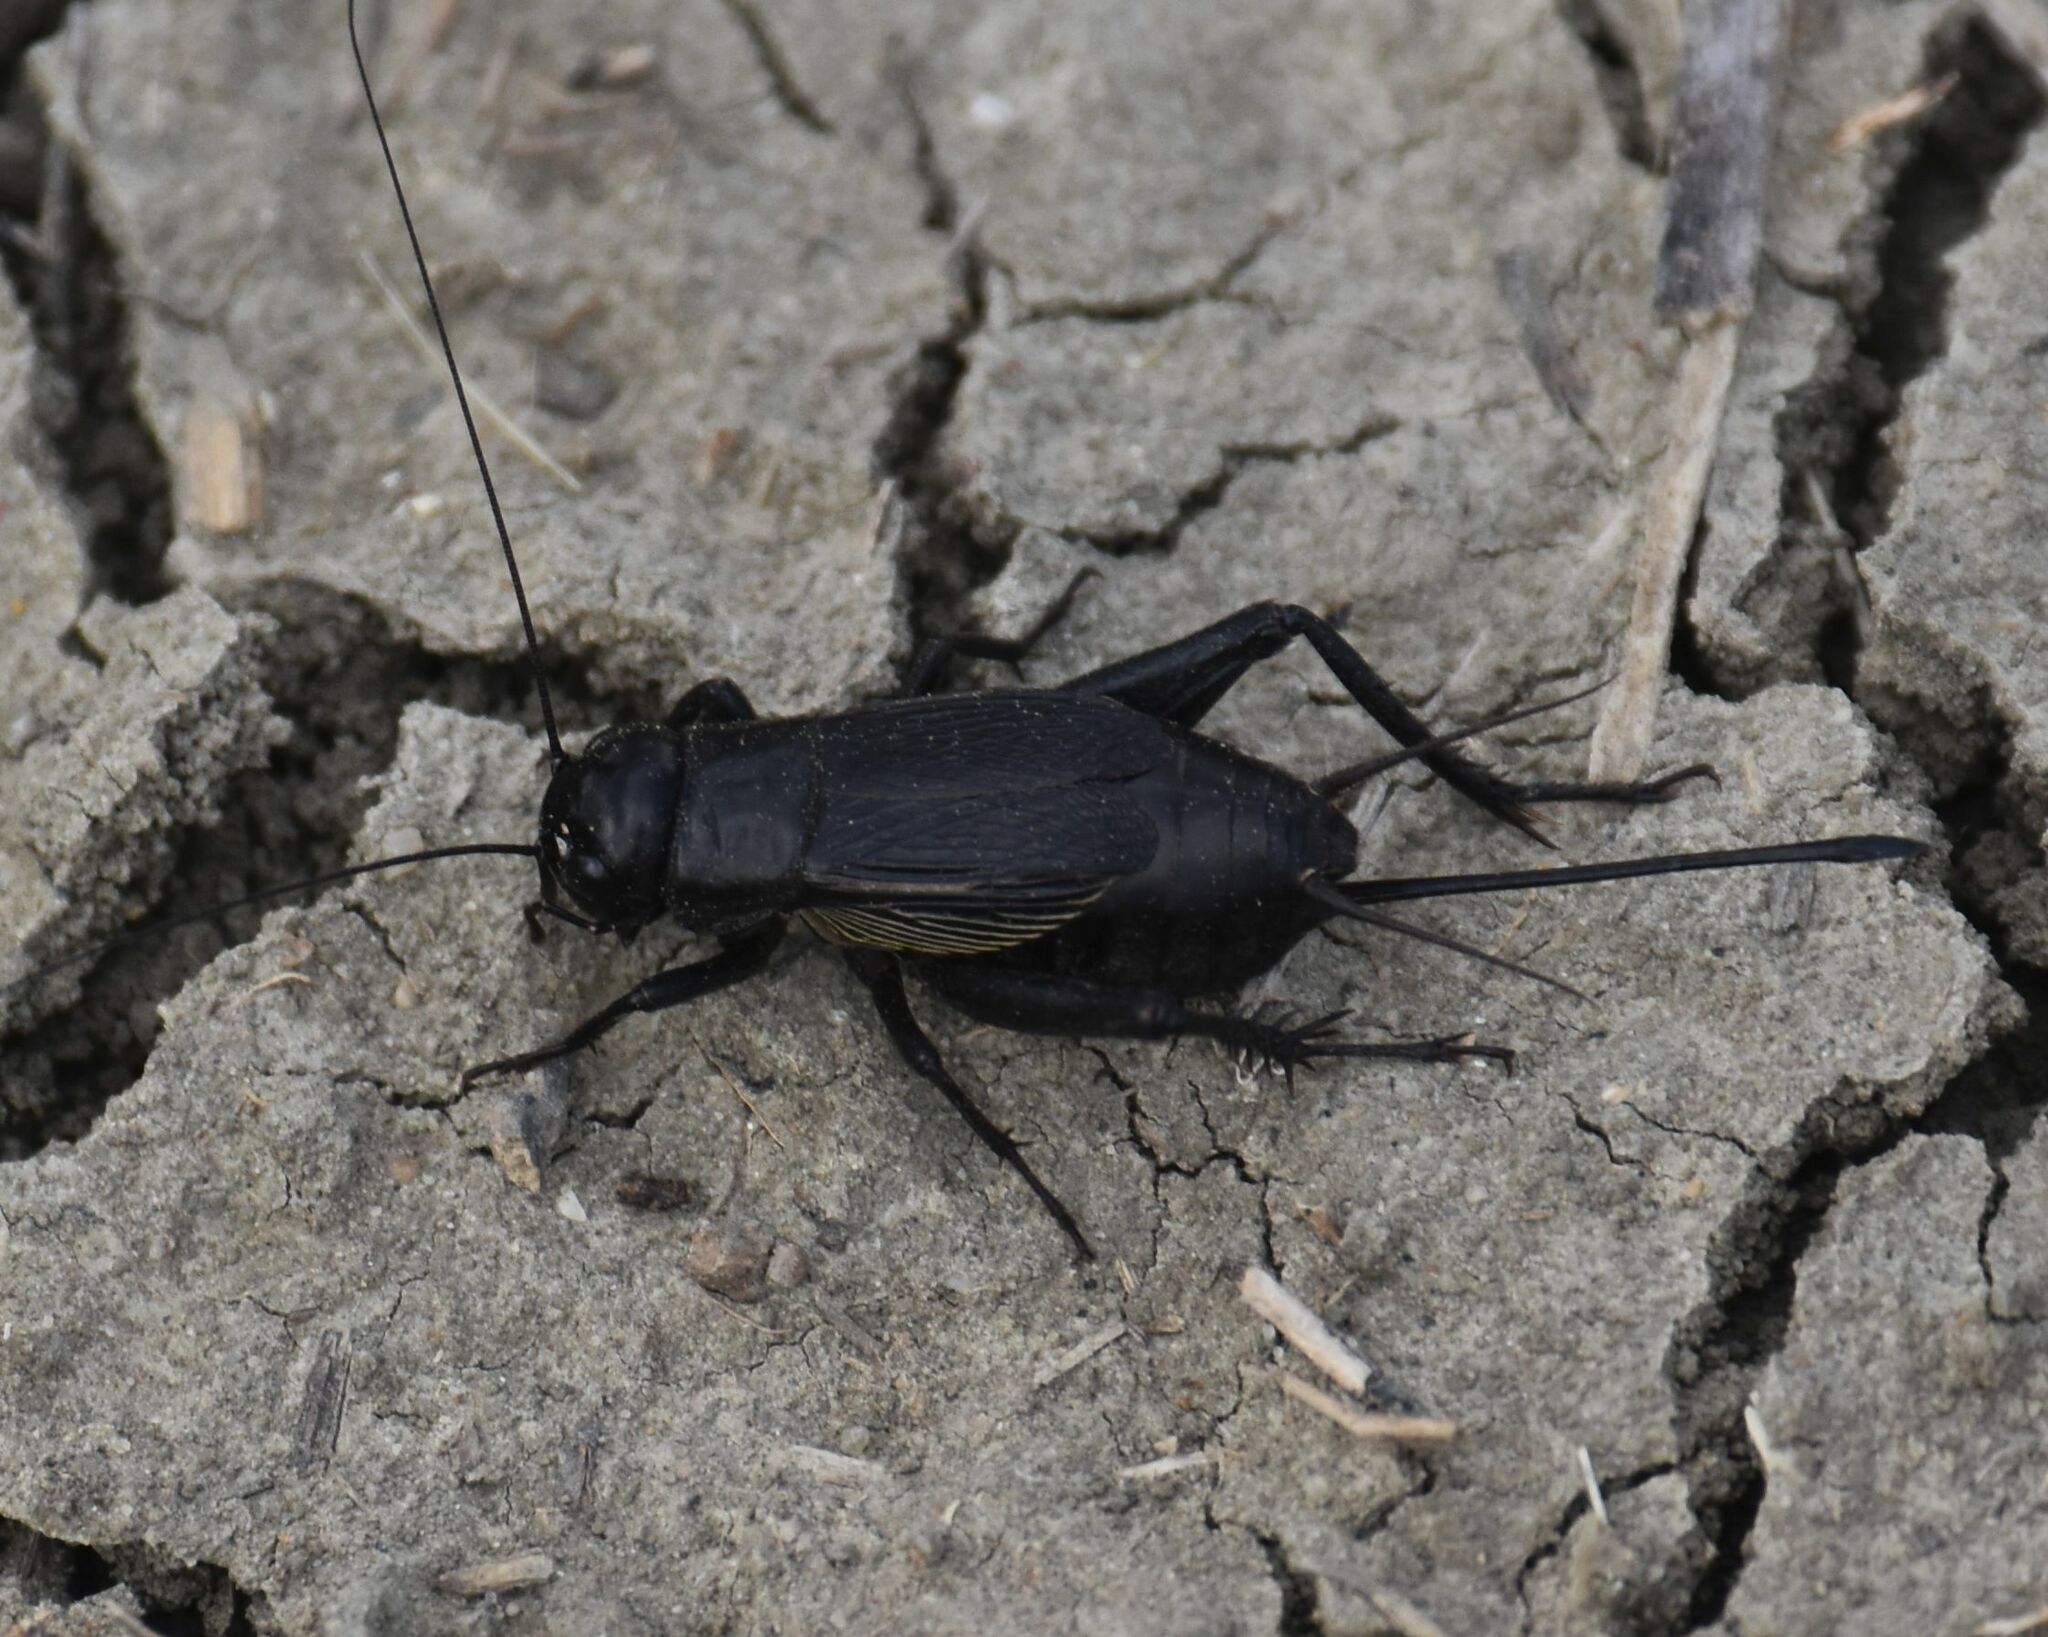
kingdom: Animalia
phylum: Arthropoda
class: Insecta
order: Orthoptera
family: Gryllidae
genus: Gryllus
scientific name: Gryllus pennsylvanicus
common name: Fall field cricket
